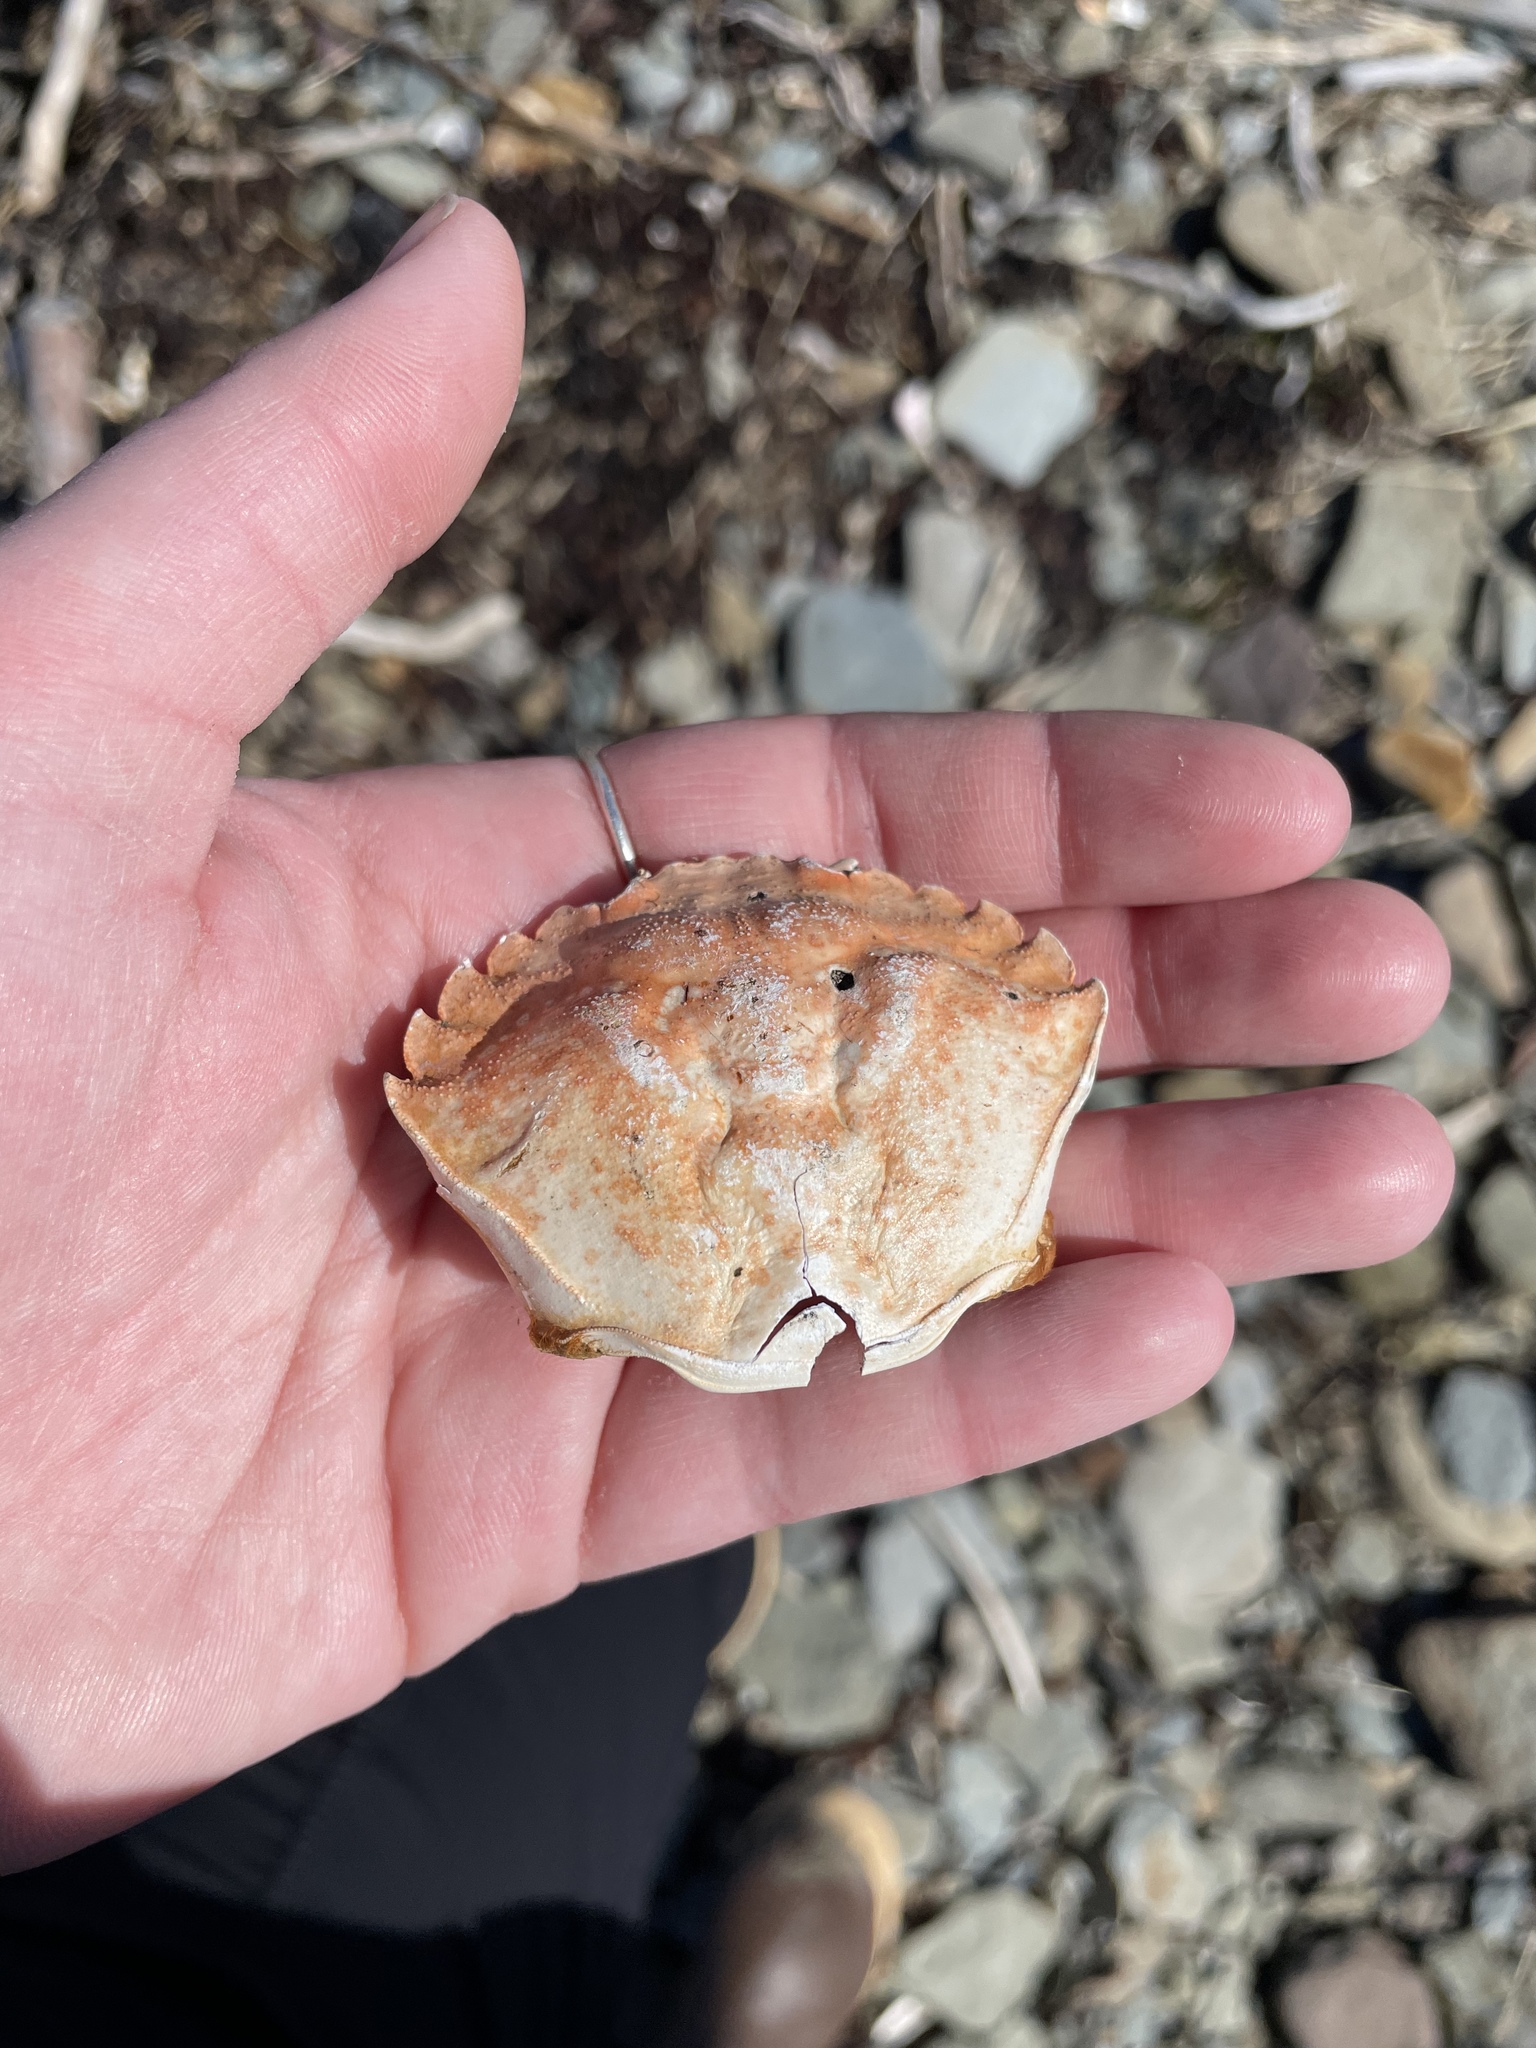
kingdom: Animalia
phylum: Arthropoda
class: Malacostraca
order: Decapoda
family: Carcinidae
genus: Carcinus
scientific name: Carcinus maenas
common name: European green crab
